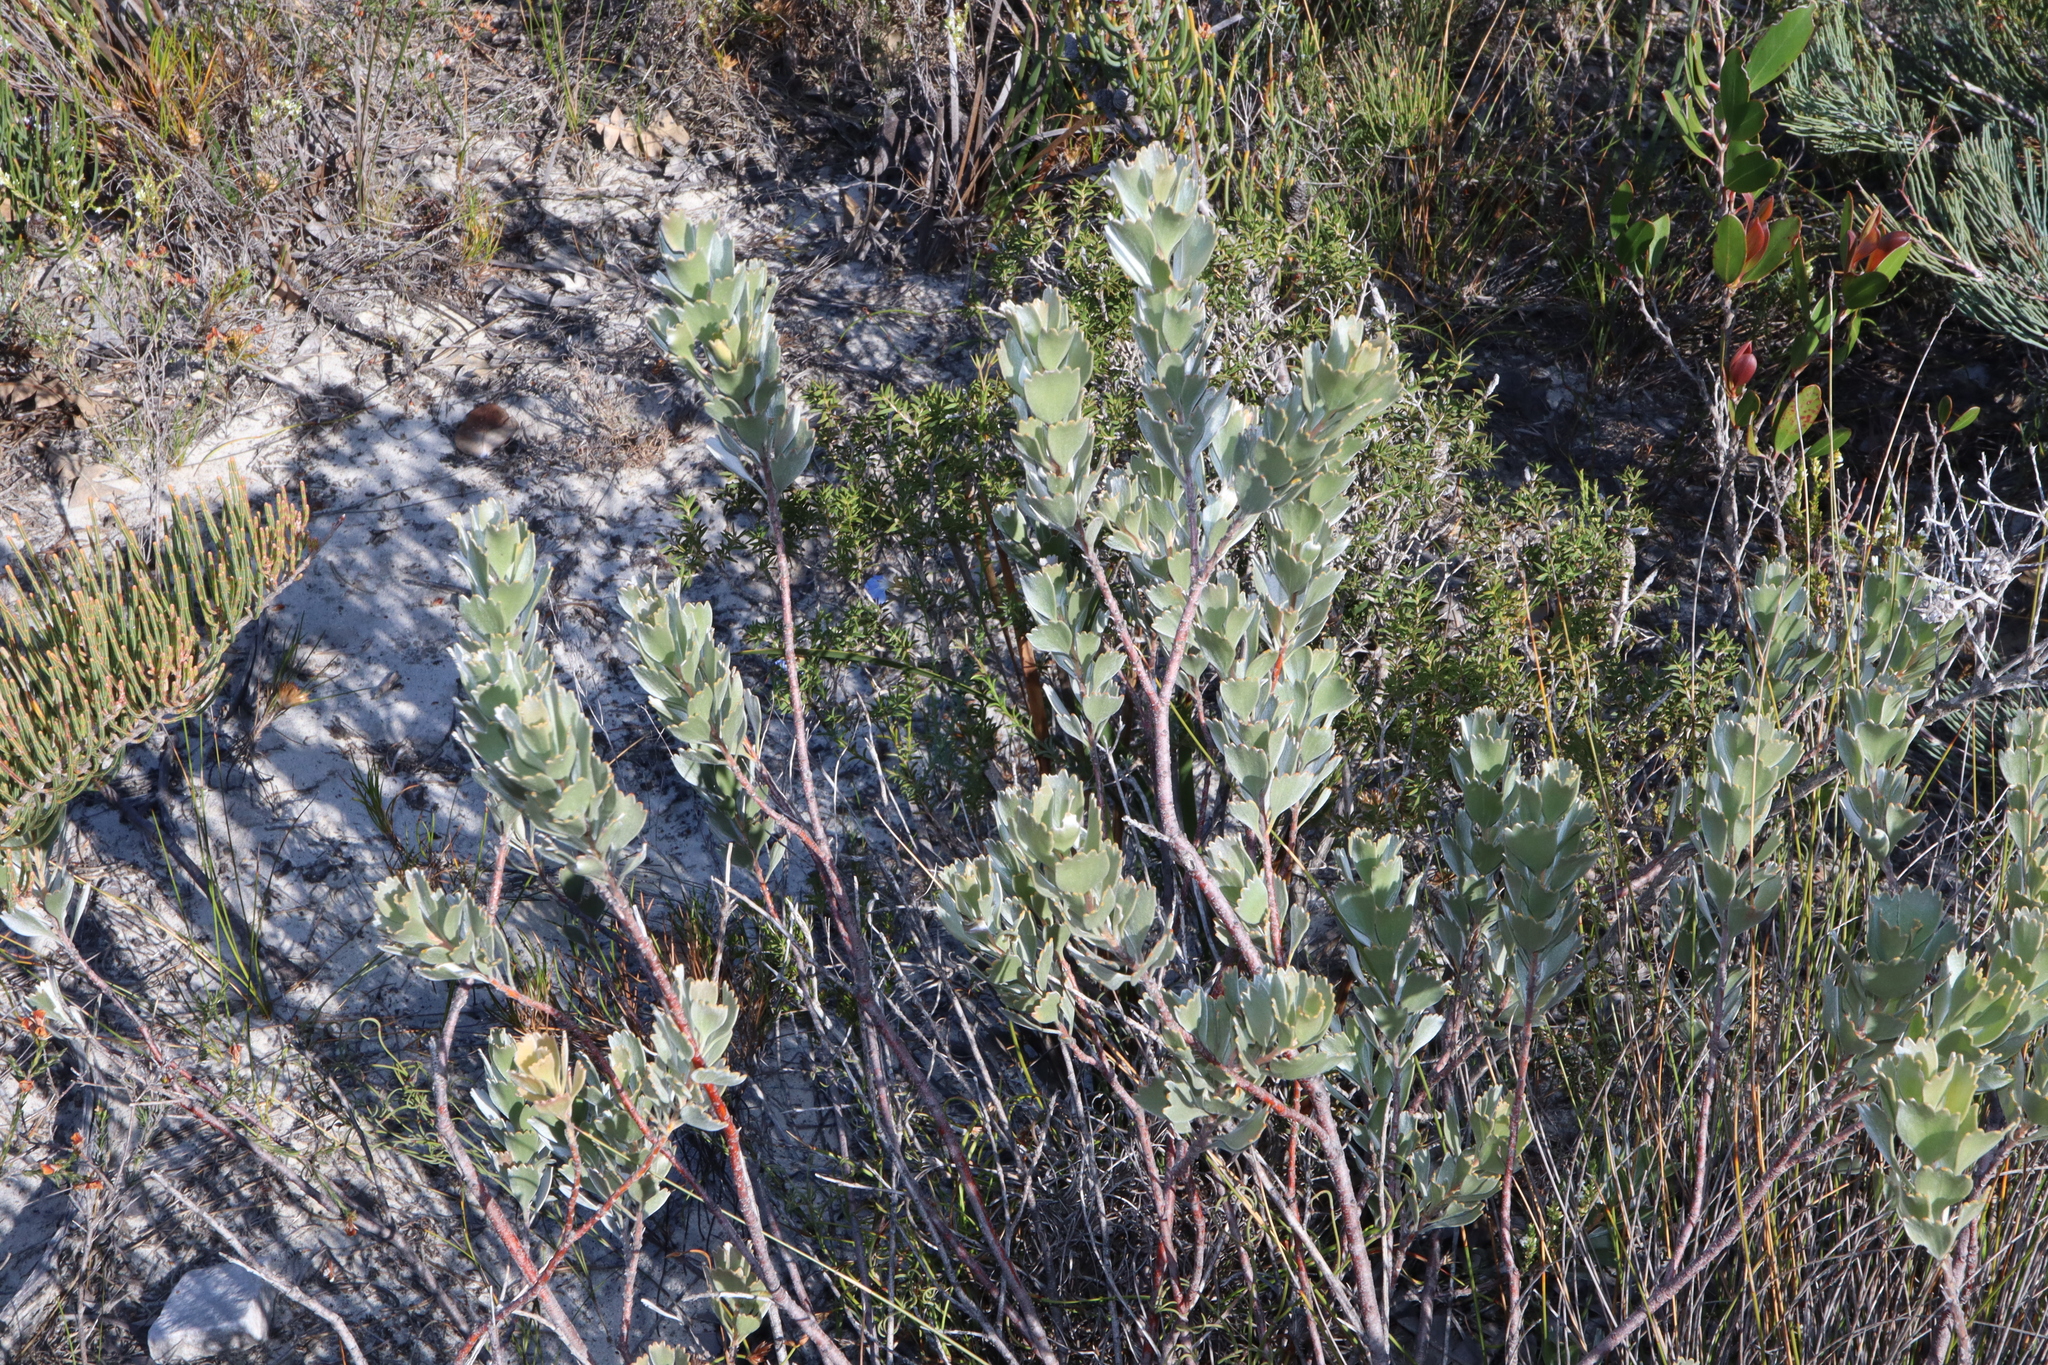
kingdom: Plantae
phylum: Tracheophyta
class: Magnoliopsida
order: Proteales
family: Proteaceae
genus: Adenanthos
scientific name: Adenanthos cuneatus
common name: Flamebush
